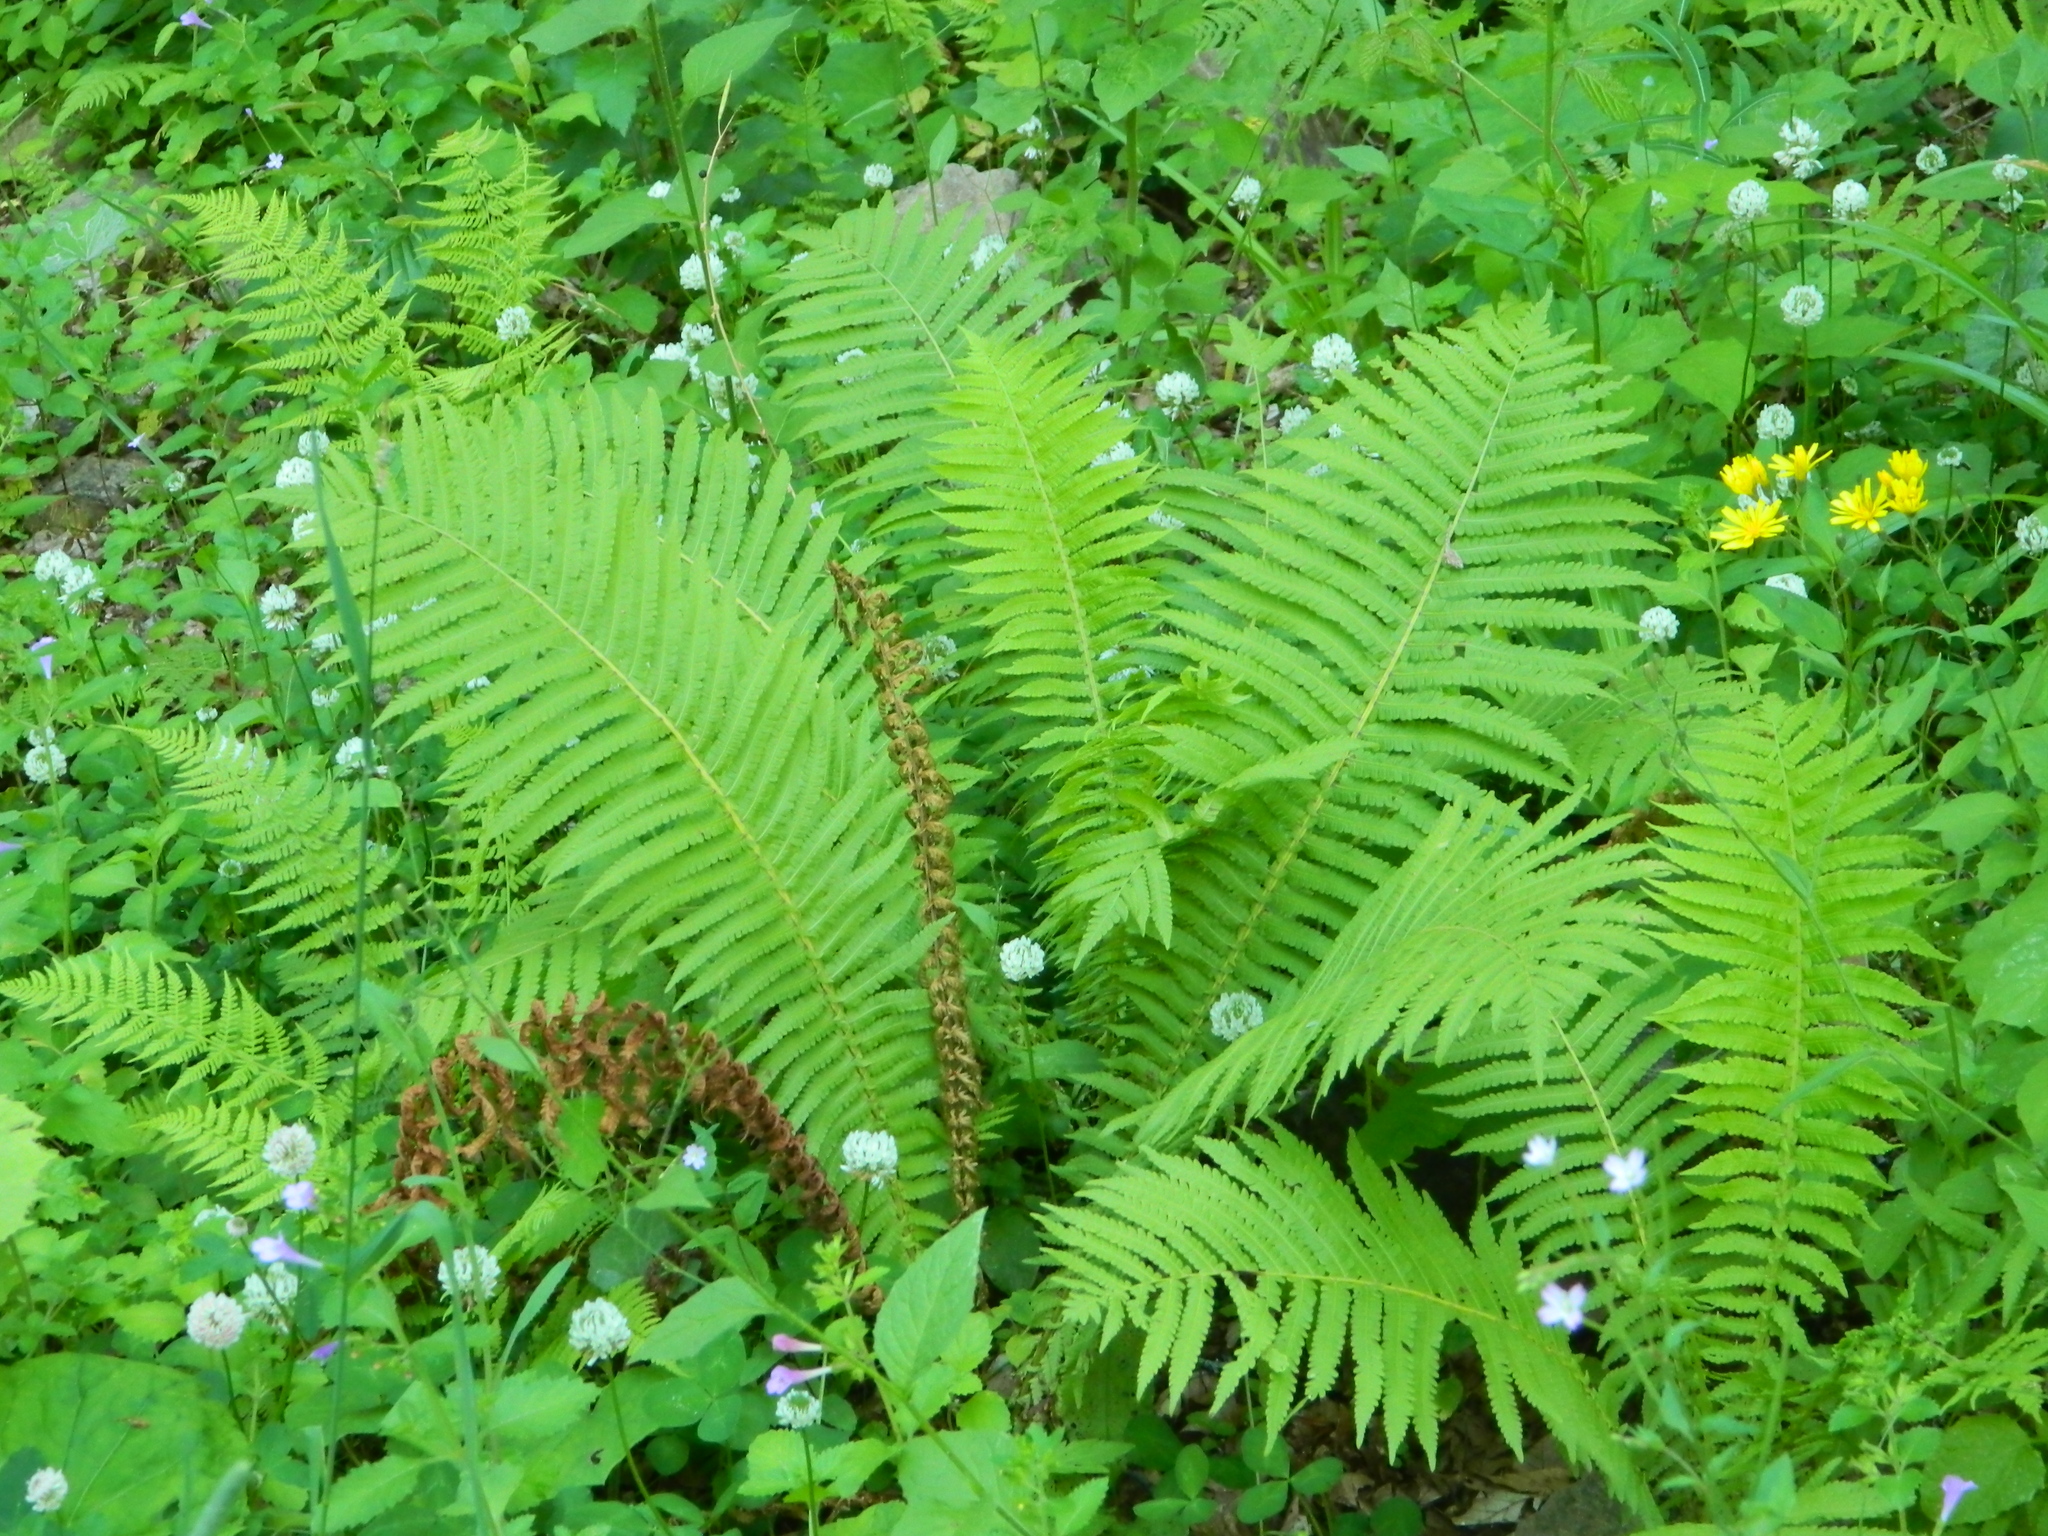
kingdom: Plantae
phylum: Tracheophyta
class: Polypodiopsida
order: Polypodiales
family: Onocleaceae
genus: Matteuccia
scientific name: Matteuccia struthiopteris
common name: Ostrich fern
